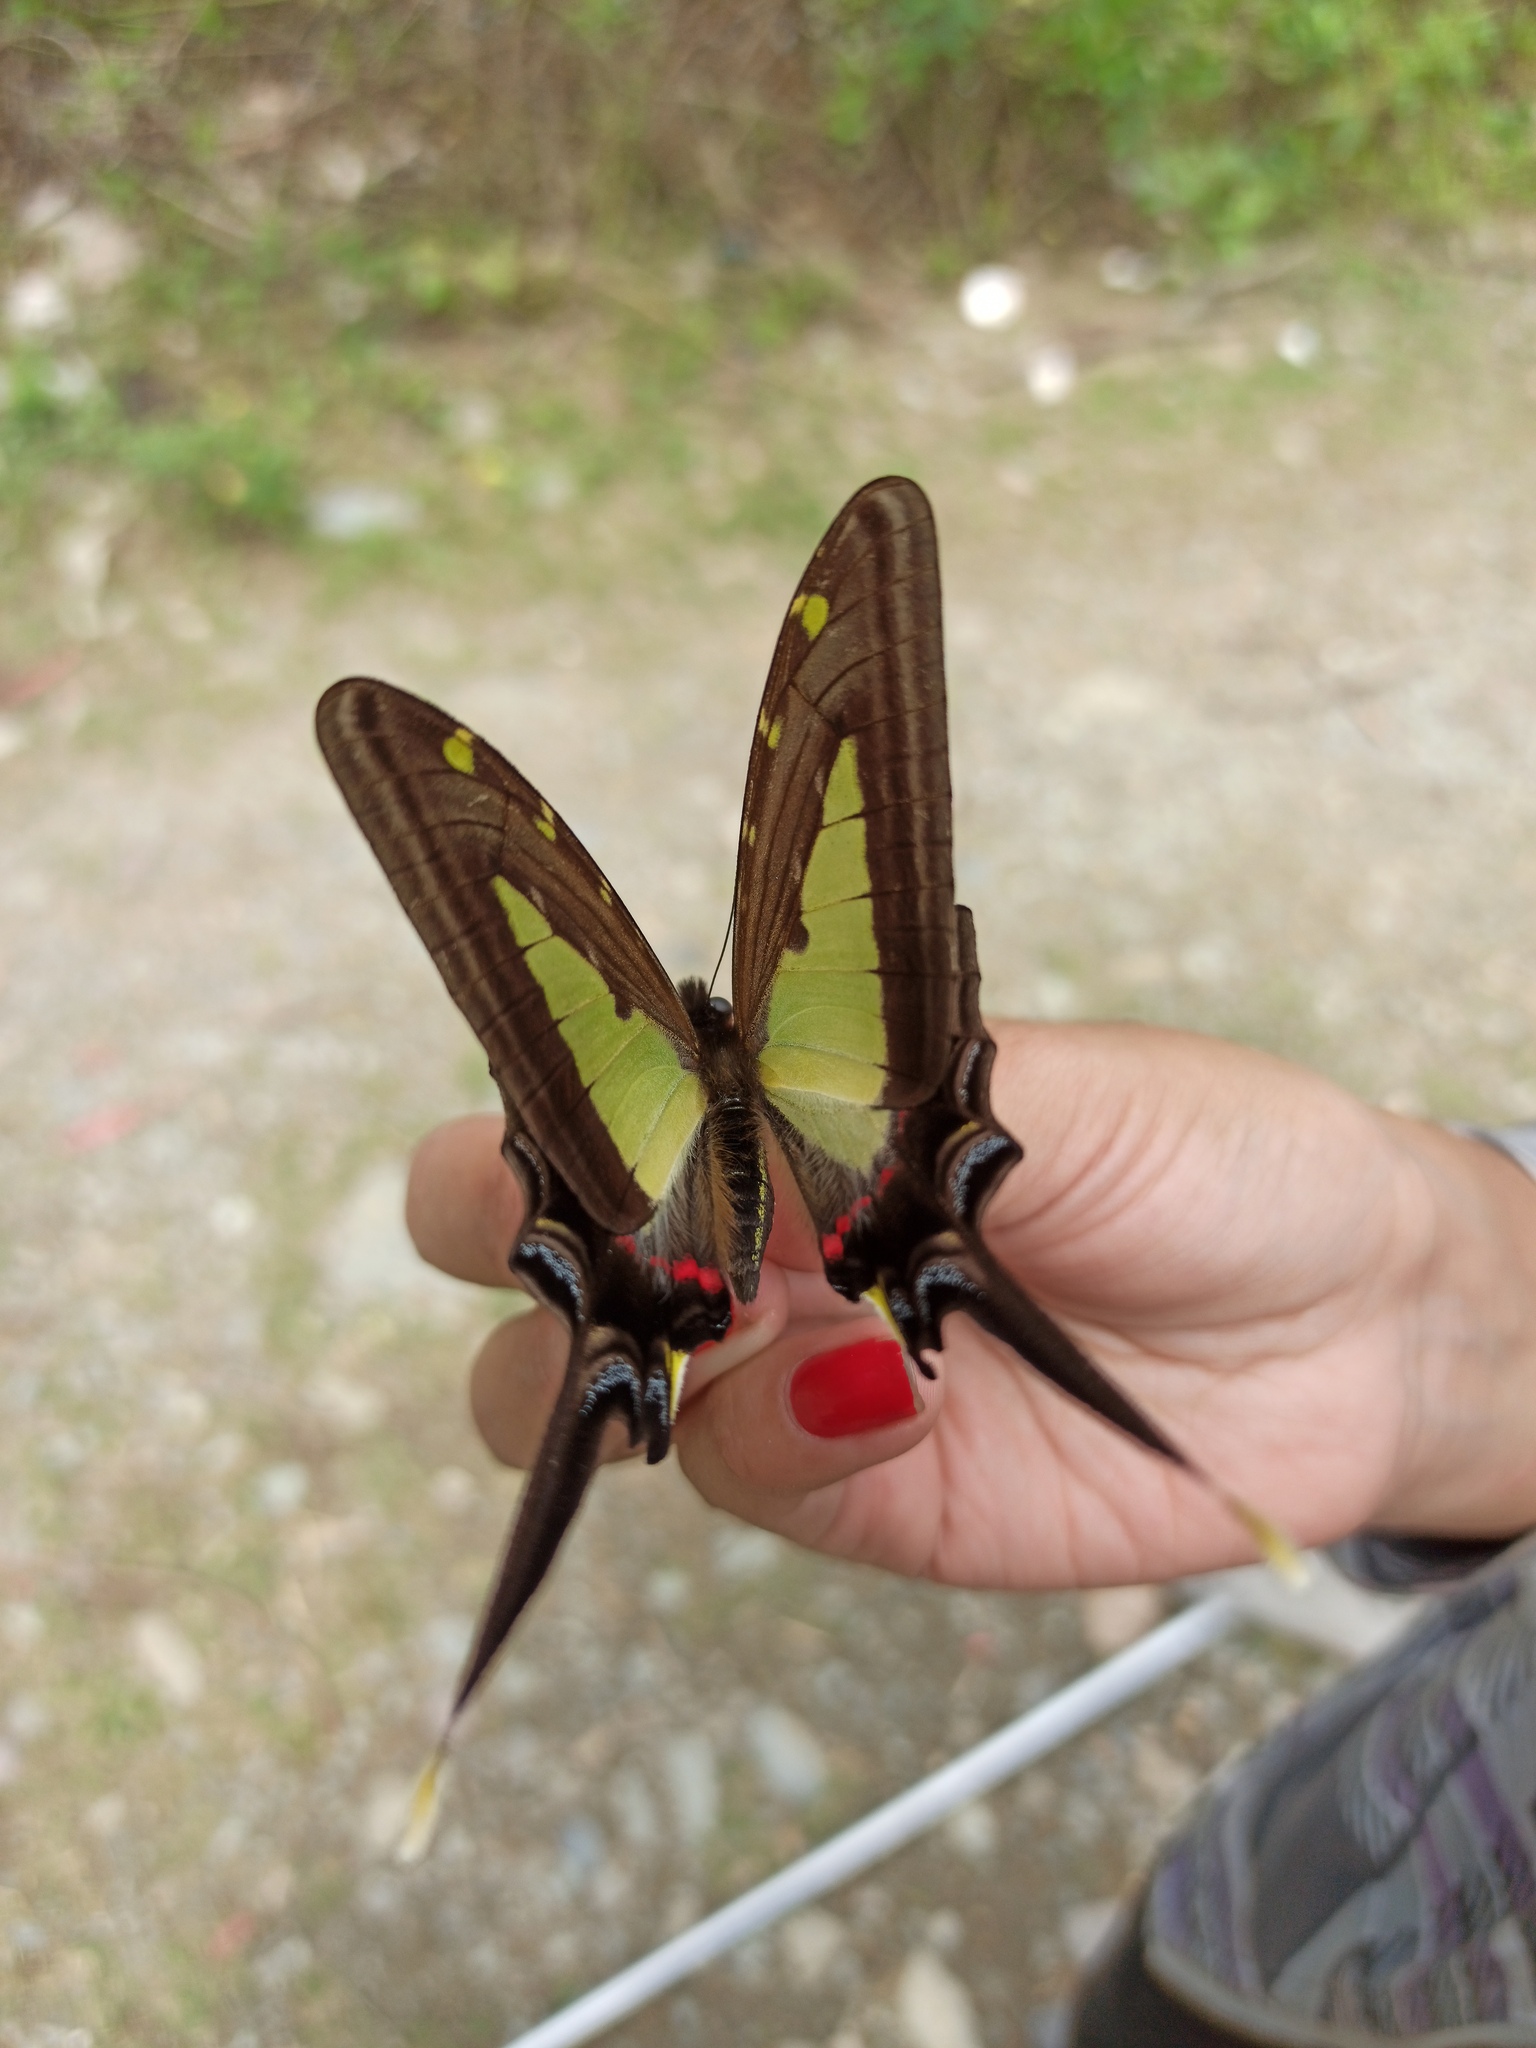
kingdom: Animalia
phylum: Arthropoda
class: Insecta
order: Lepidoptera
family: Papilionidae
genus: Protographium
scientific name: Protographium leucaspis
